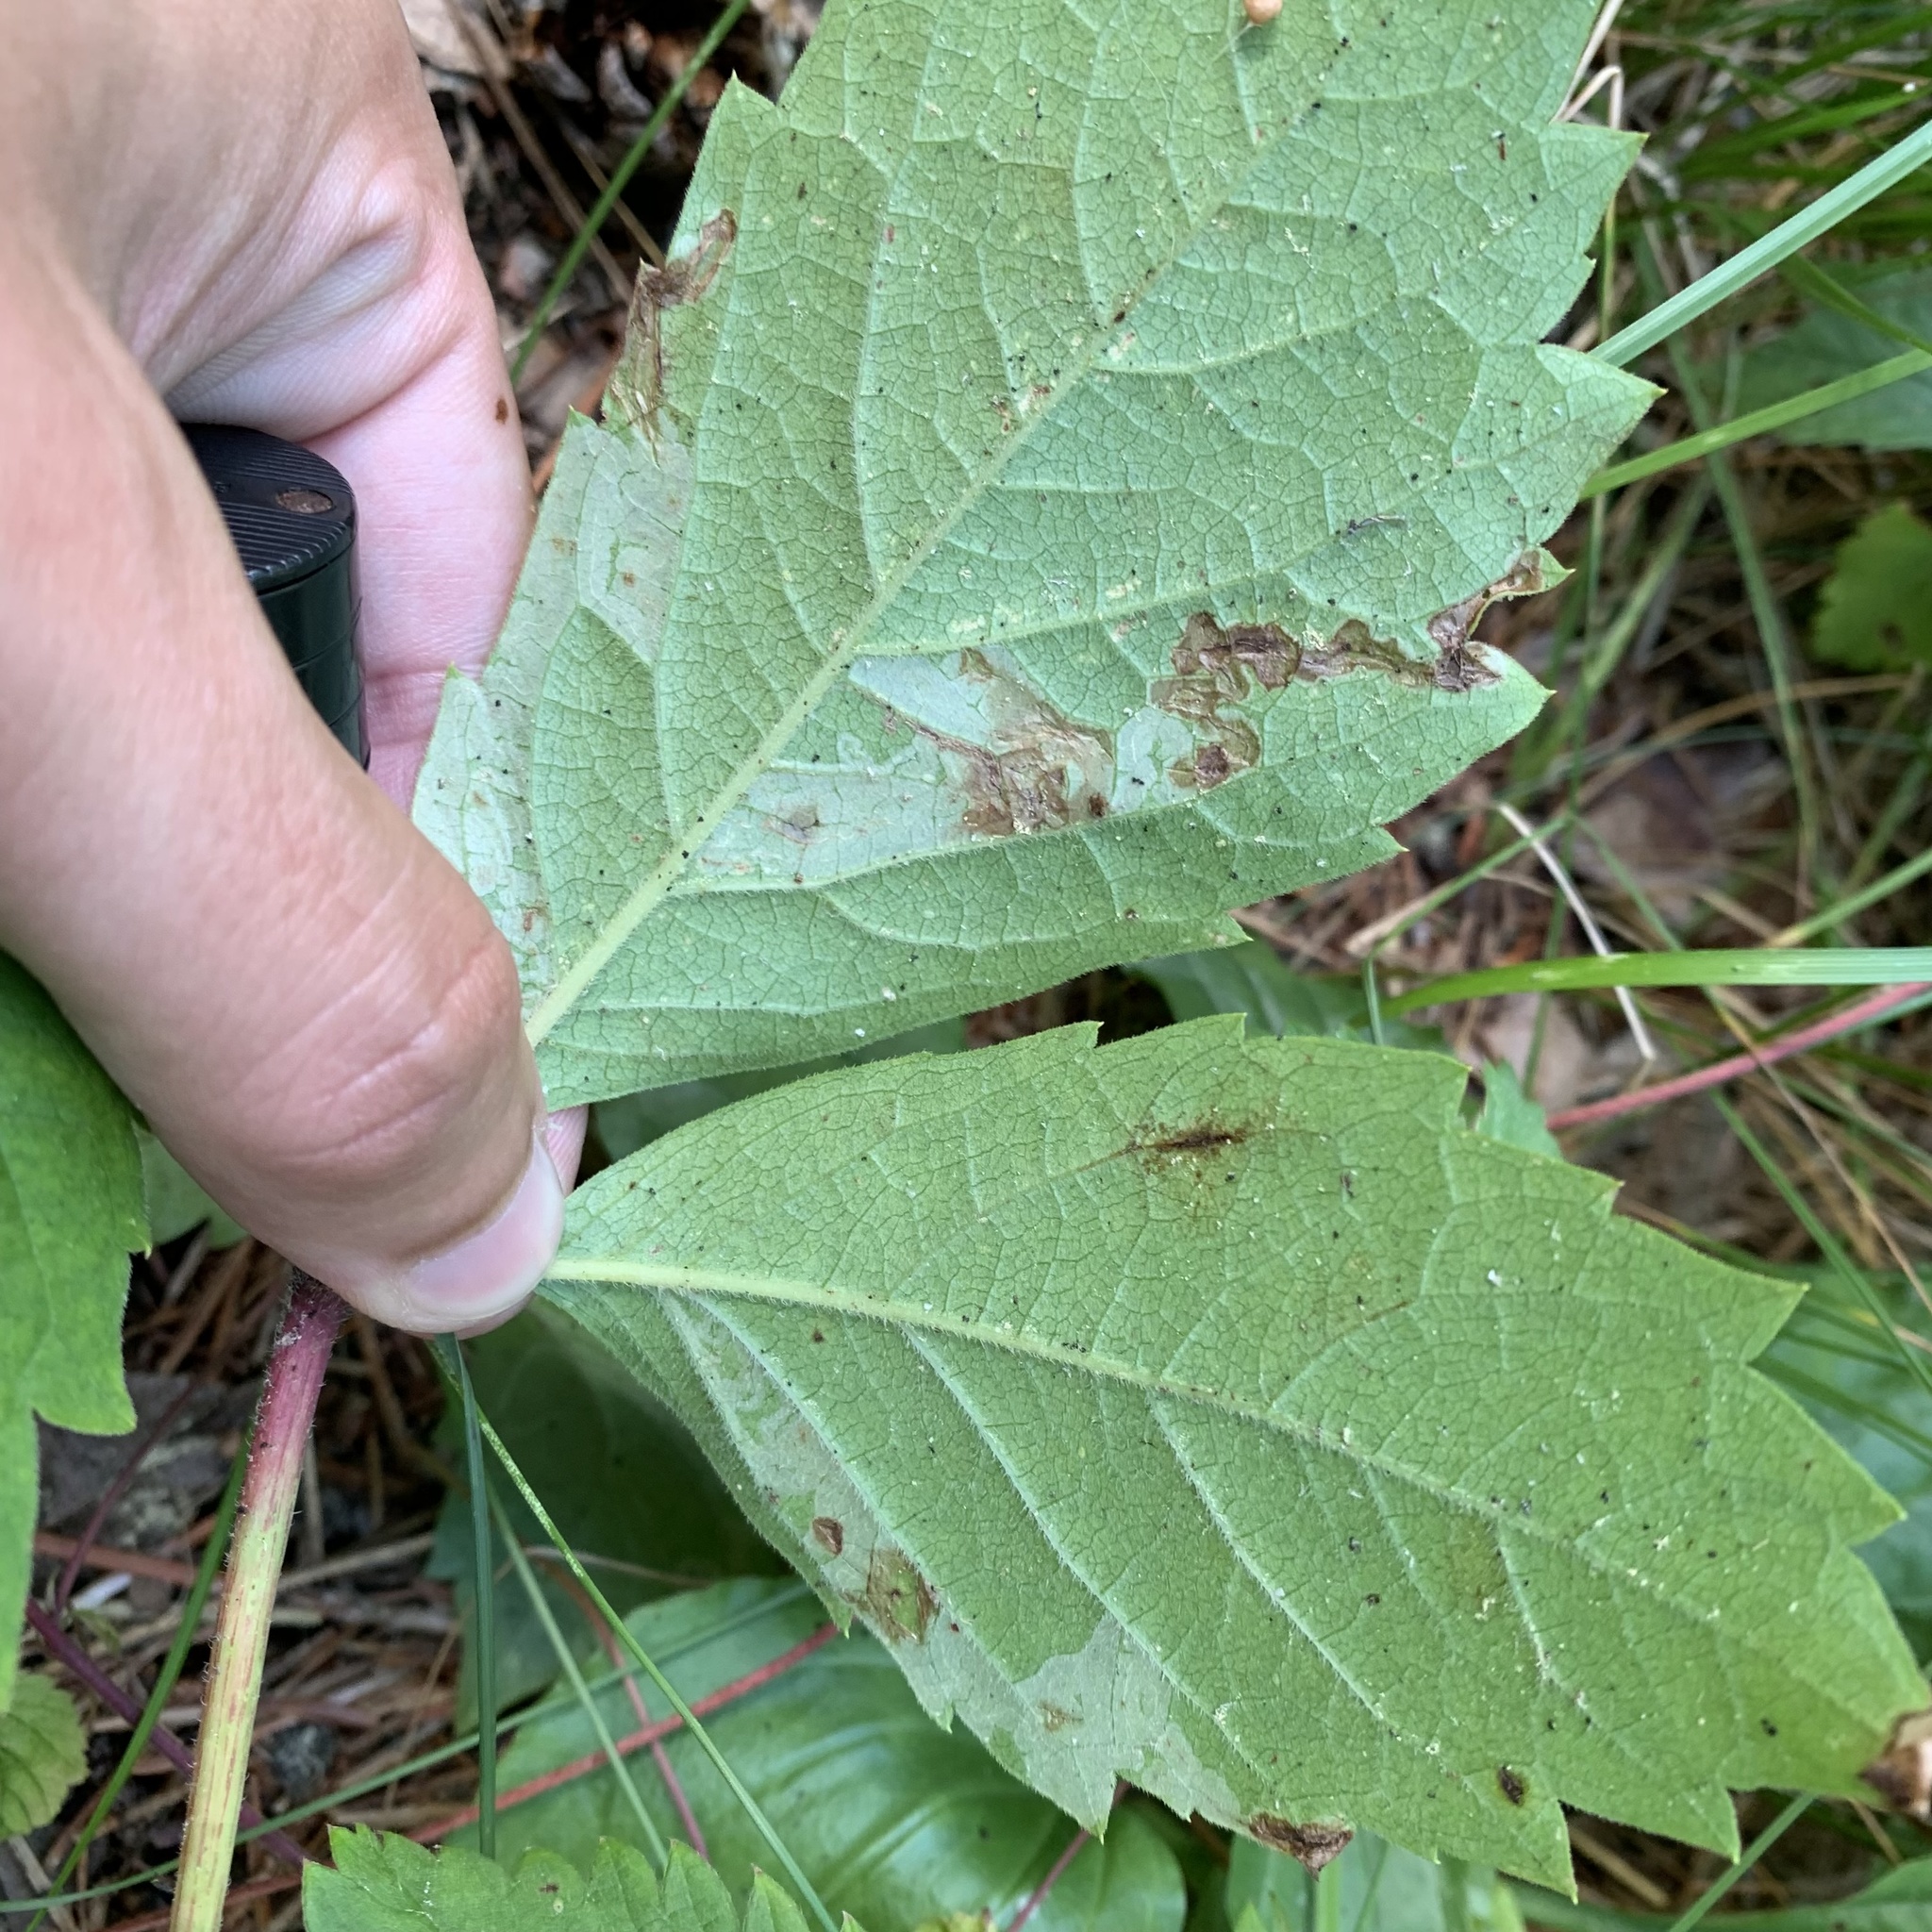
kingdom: Animalia
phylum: Arthropoda
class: Insecta
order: Lepidoptera
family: Gracillariidae
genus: Phyllocnistis
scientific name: Phyllocnistis ampelopsiella
